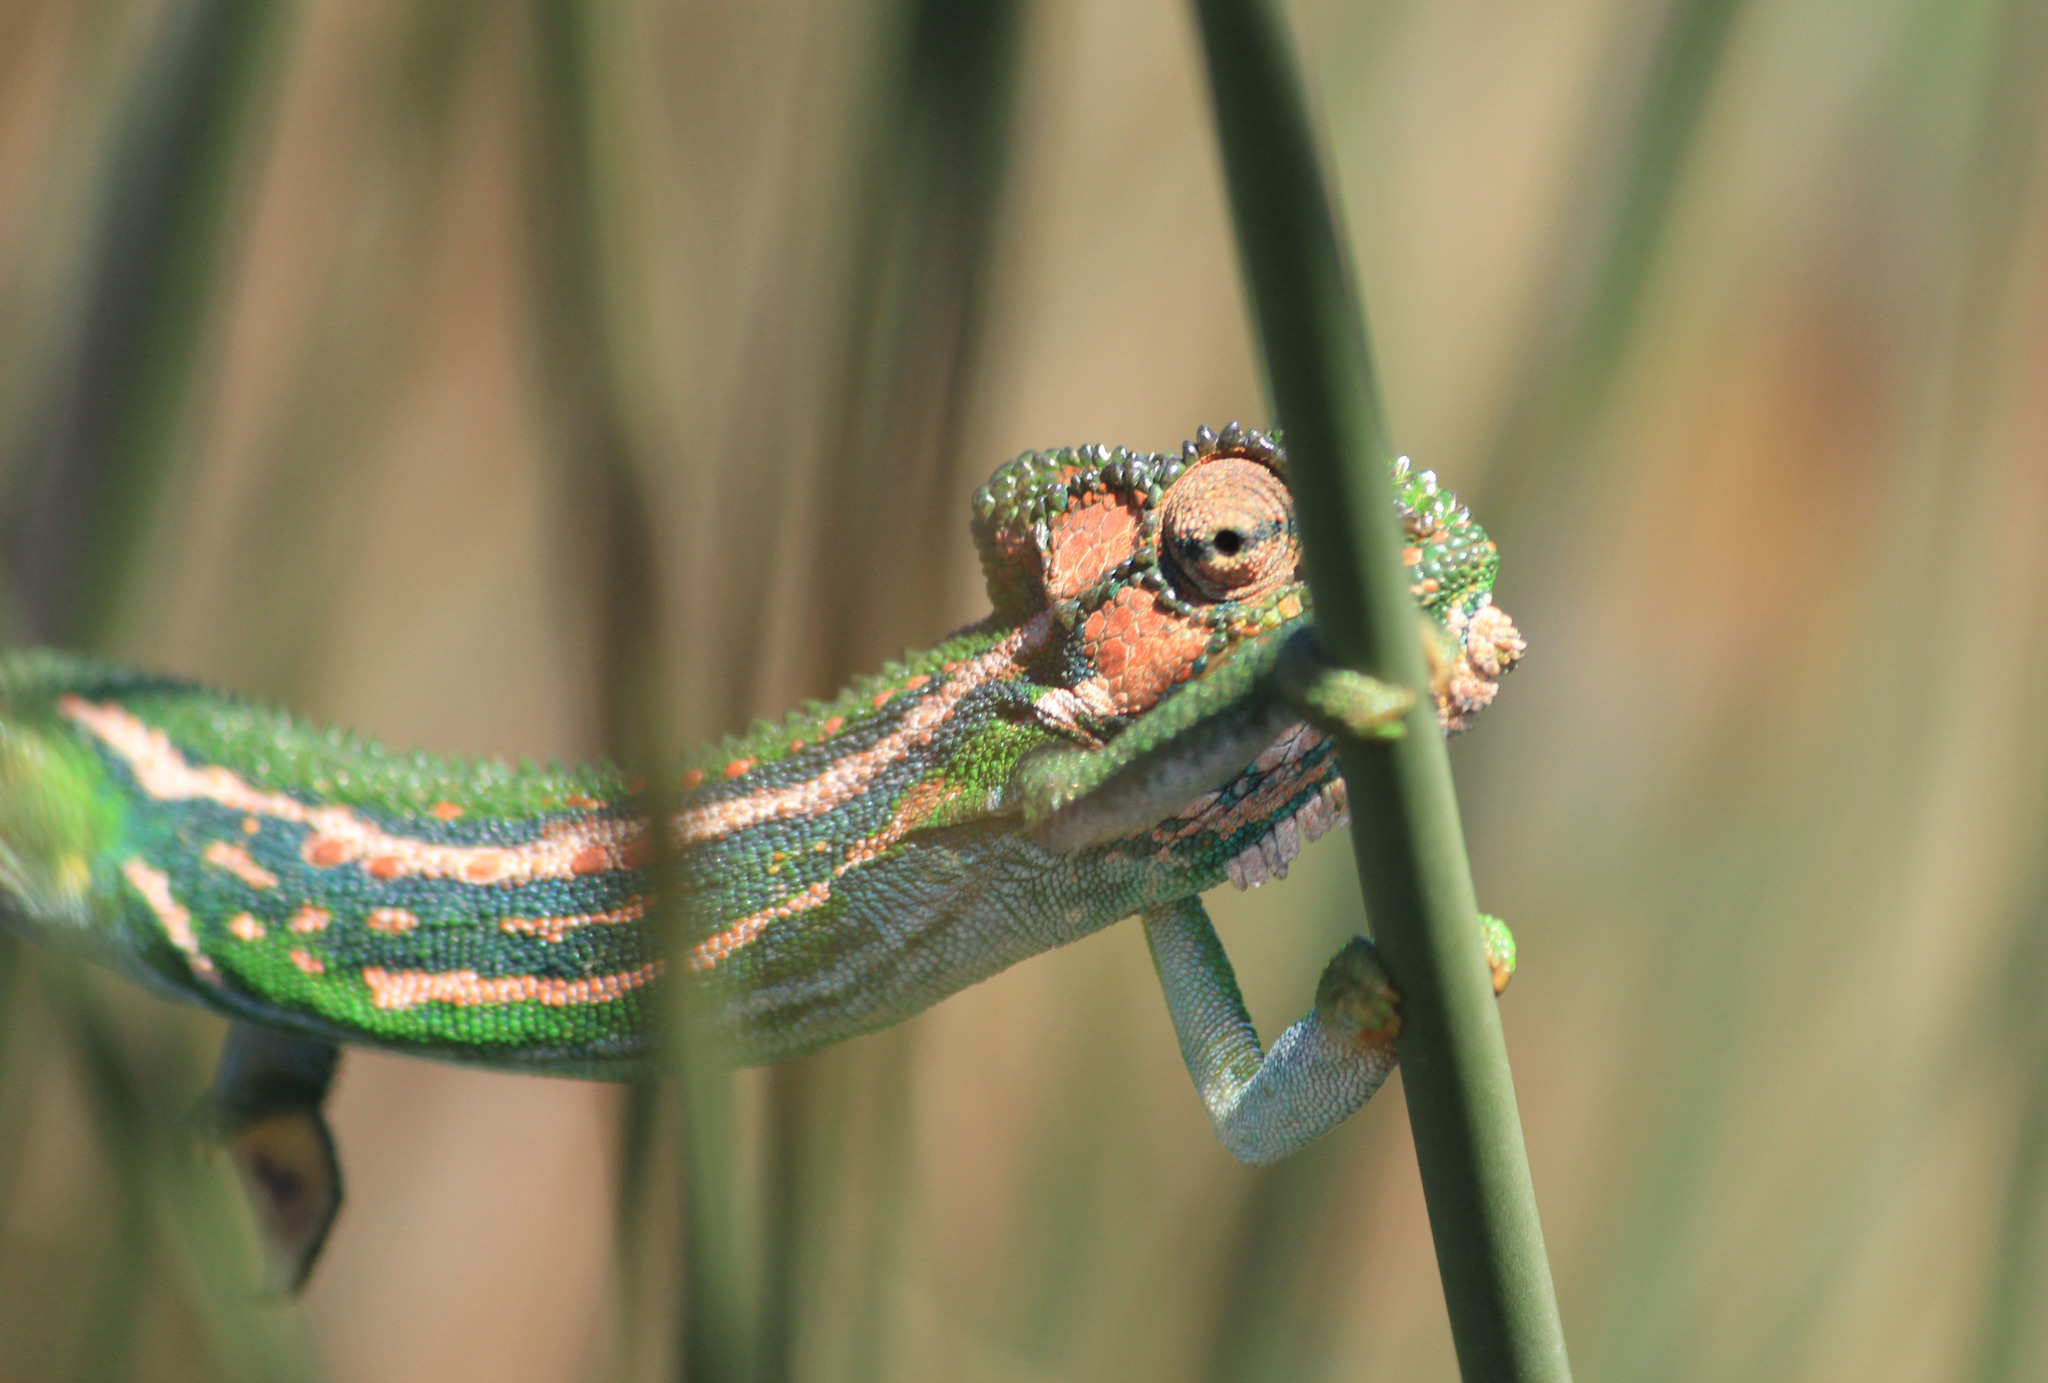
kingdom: Animalia
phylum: Chordata
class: Squamata
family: Chamaeleonidae
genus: Bradypodion
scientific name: Bradypodion pumilum
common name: Cape dwarf chameleon
